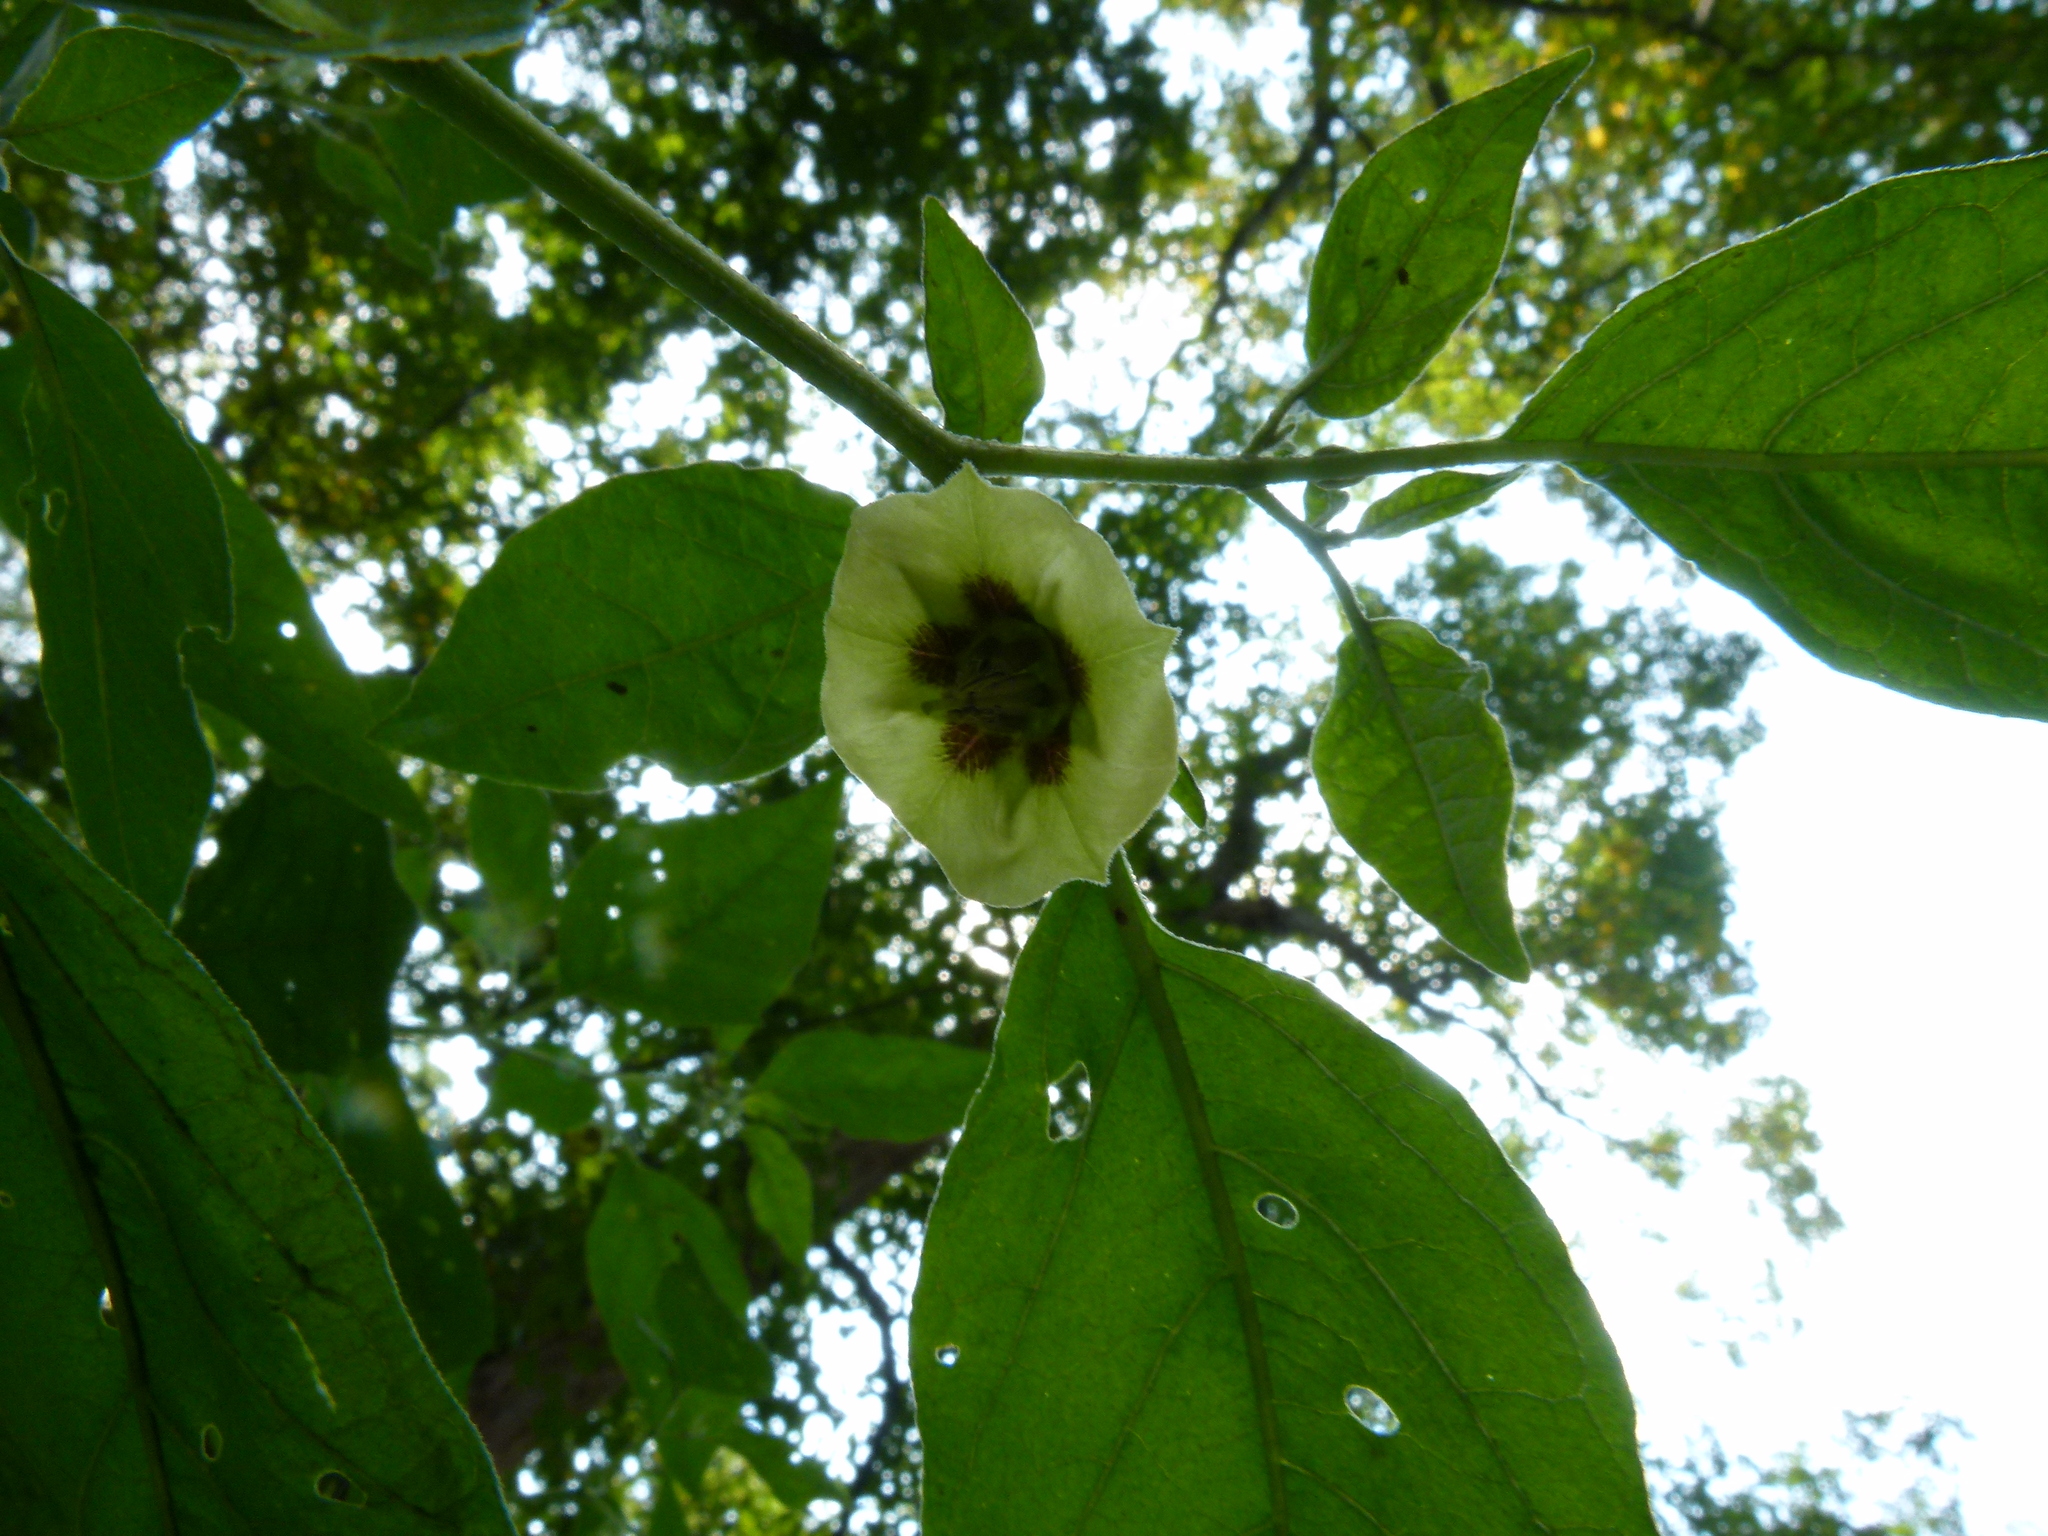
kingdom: Plantae
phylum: Tracheophyta
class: Magnoliopsida
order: Solanales
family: Solanaceae
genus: Physalis
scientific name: Physalis longifolia
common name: Common ground-cherry
